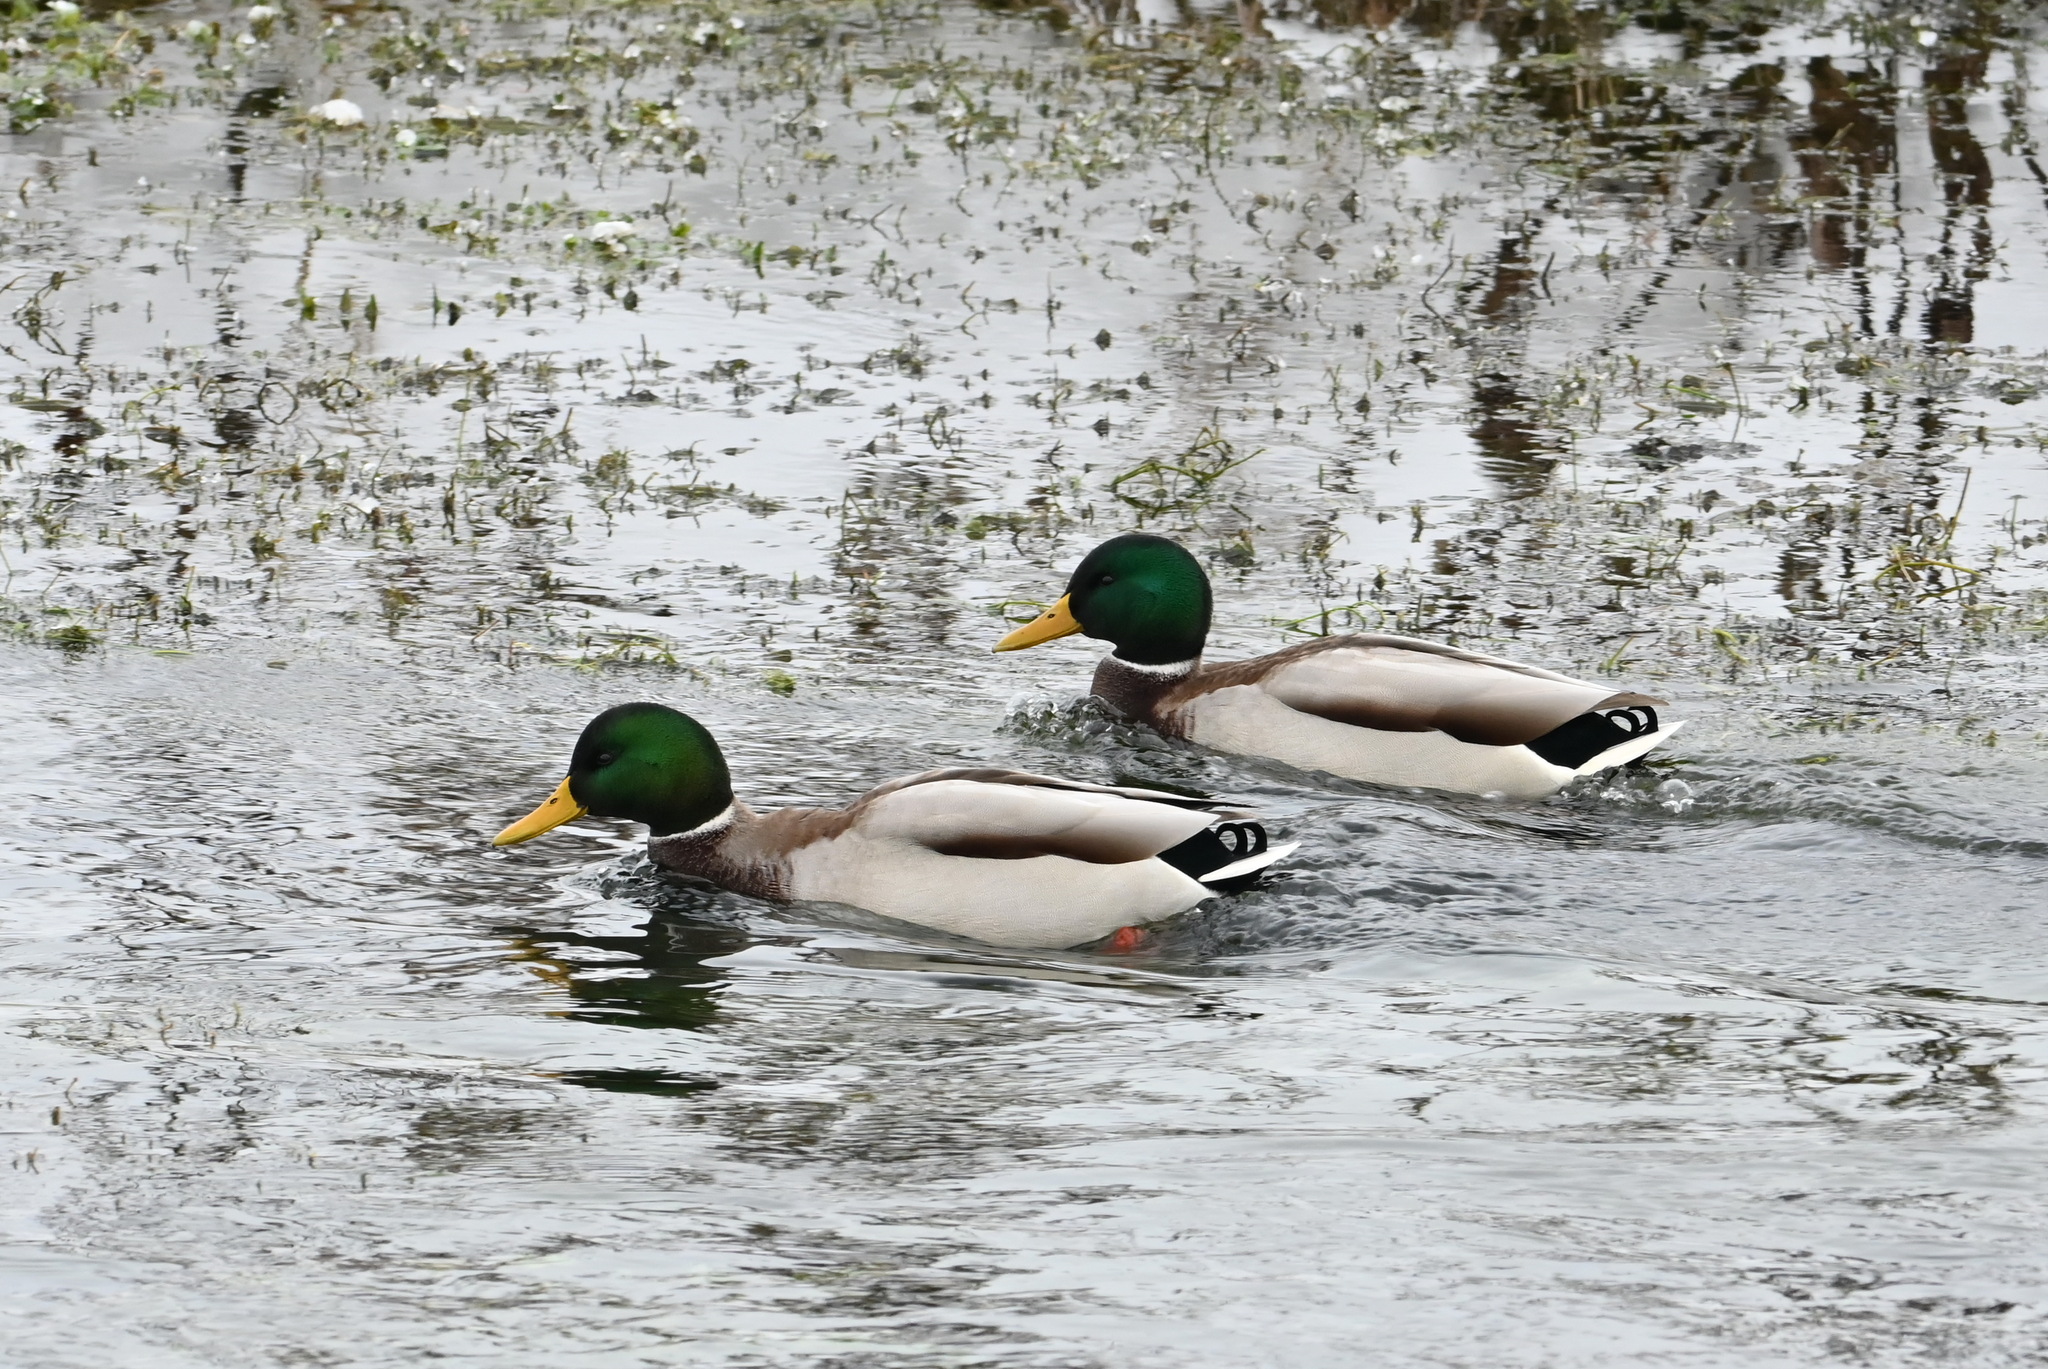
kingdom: Animalia
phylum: Chordata
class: Aves
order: Anseriformes
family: Anatidae
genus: Anas
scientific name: Anas platyrhynchos
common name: Mallard
